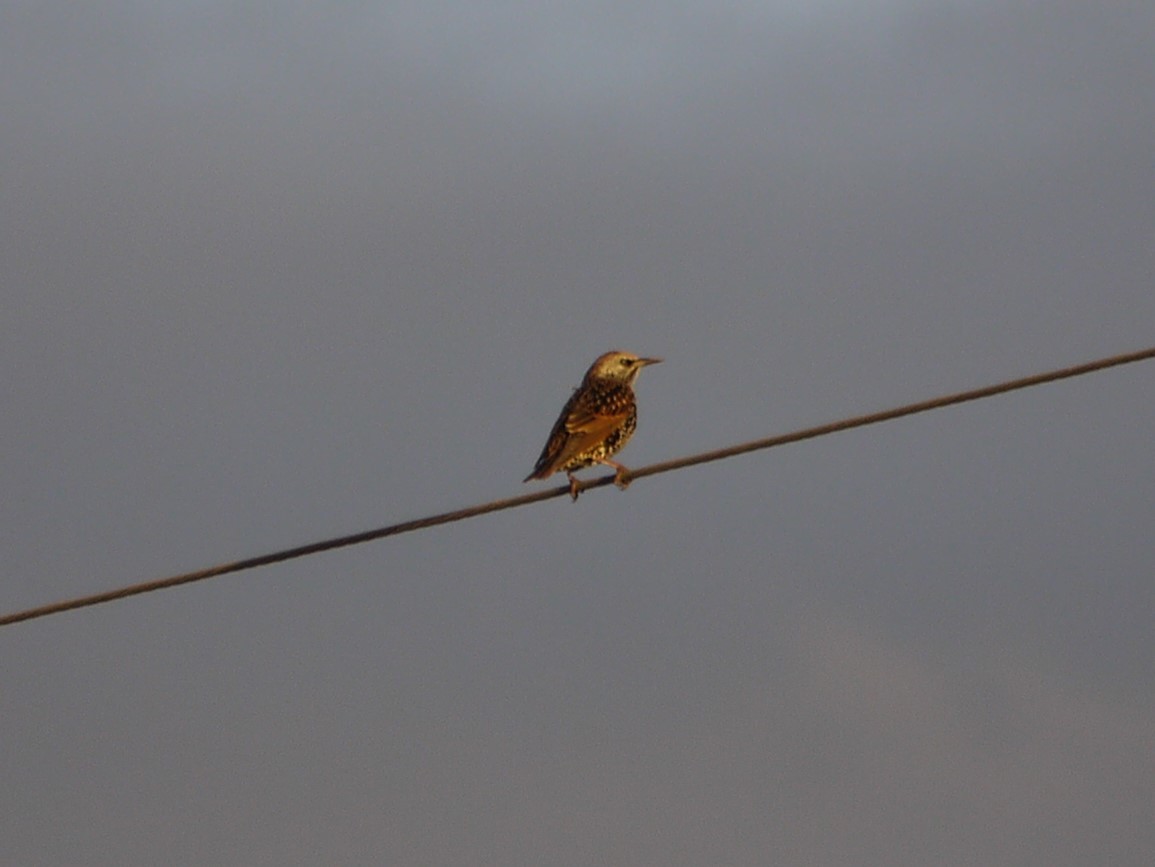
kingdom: Animalia
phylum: Chordata
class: Aves
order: Passeriformes
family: Sturnidae
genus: Sturnus
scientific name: Sturnus vulgaris
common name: Common starling
